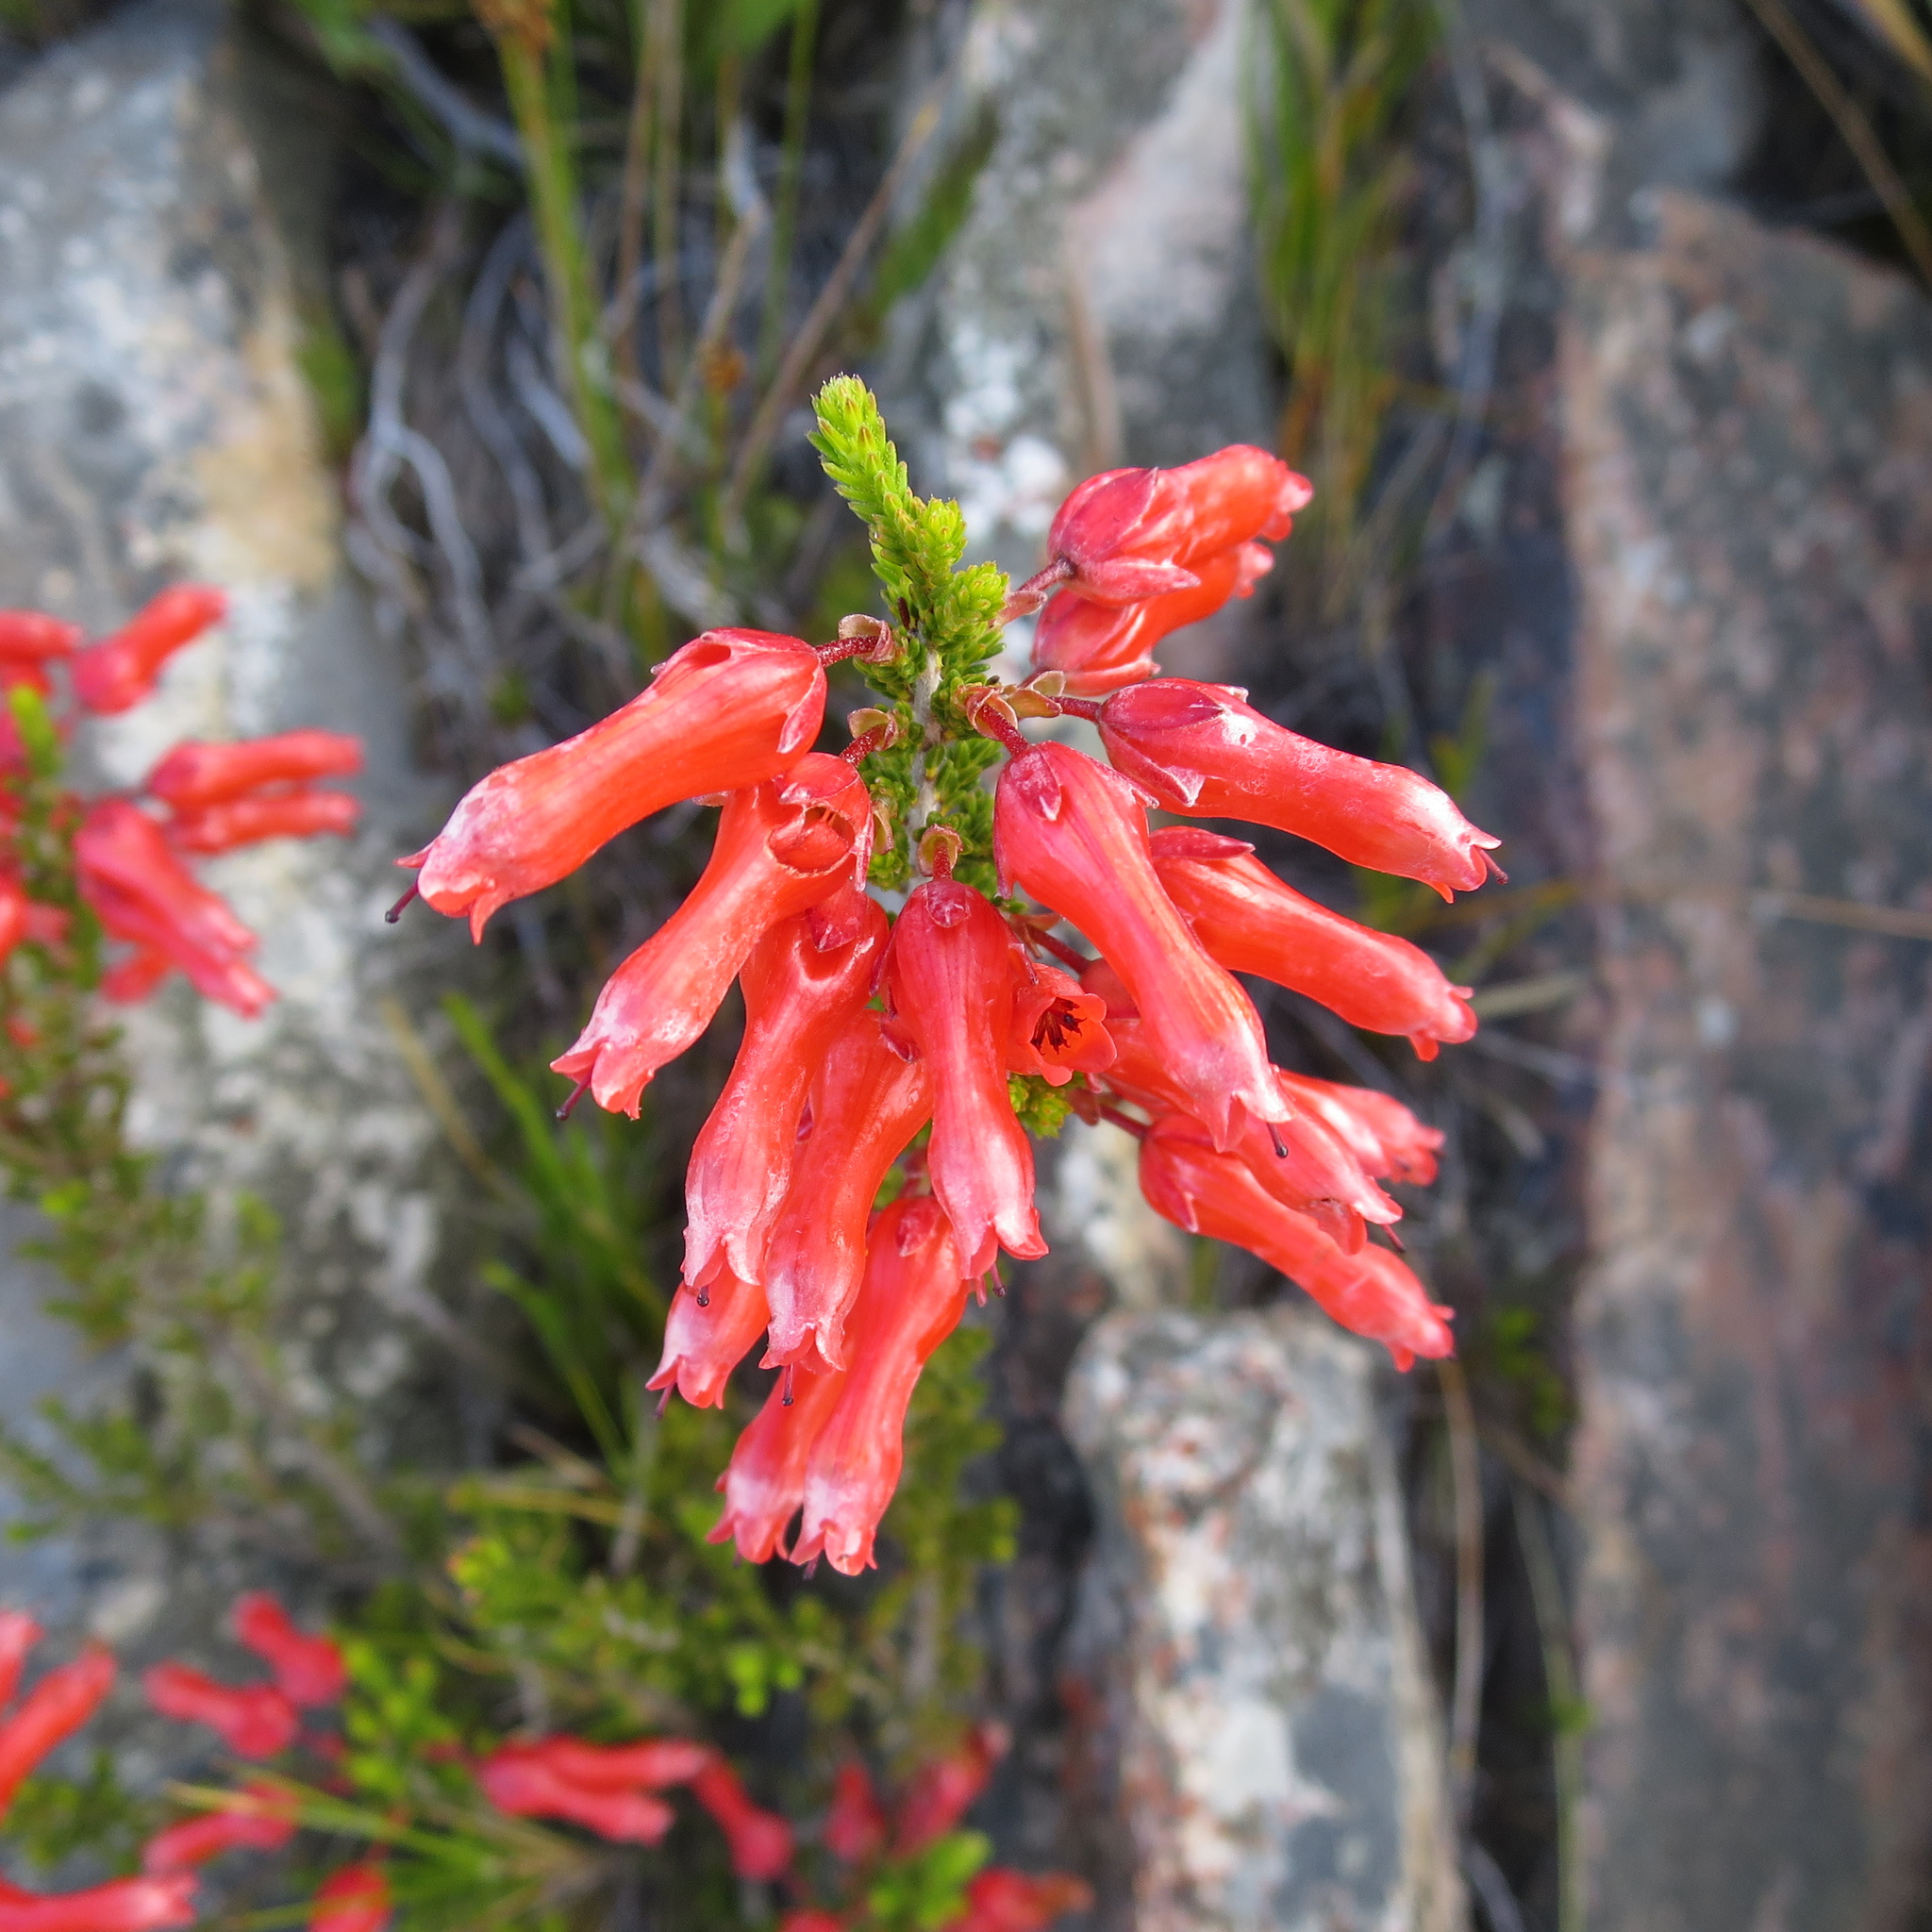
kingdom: Plantae
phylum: Tracheophyta
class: Magnoliopsida
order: Ericales
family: Ericaceae
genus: Erica
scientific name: Erica inordinata
